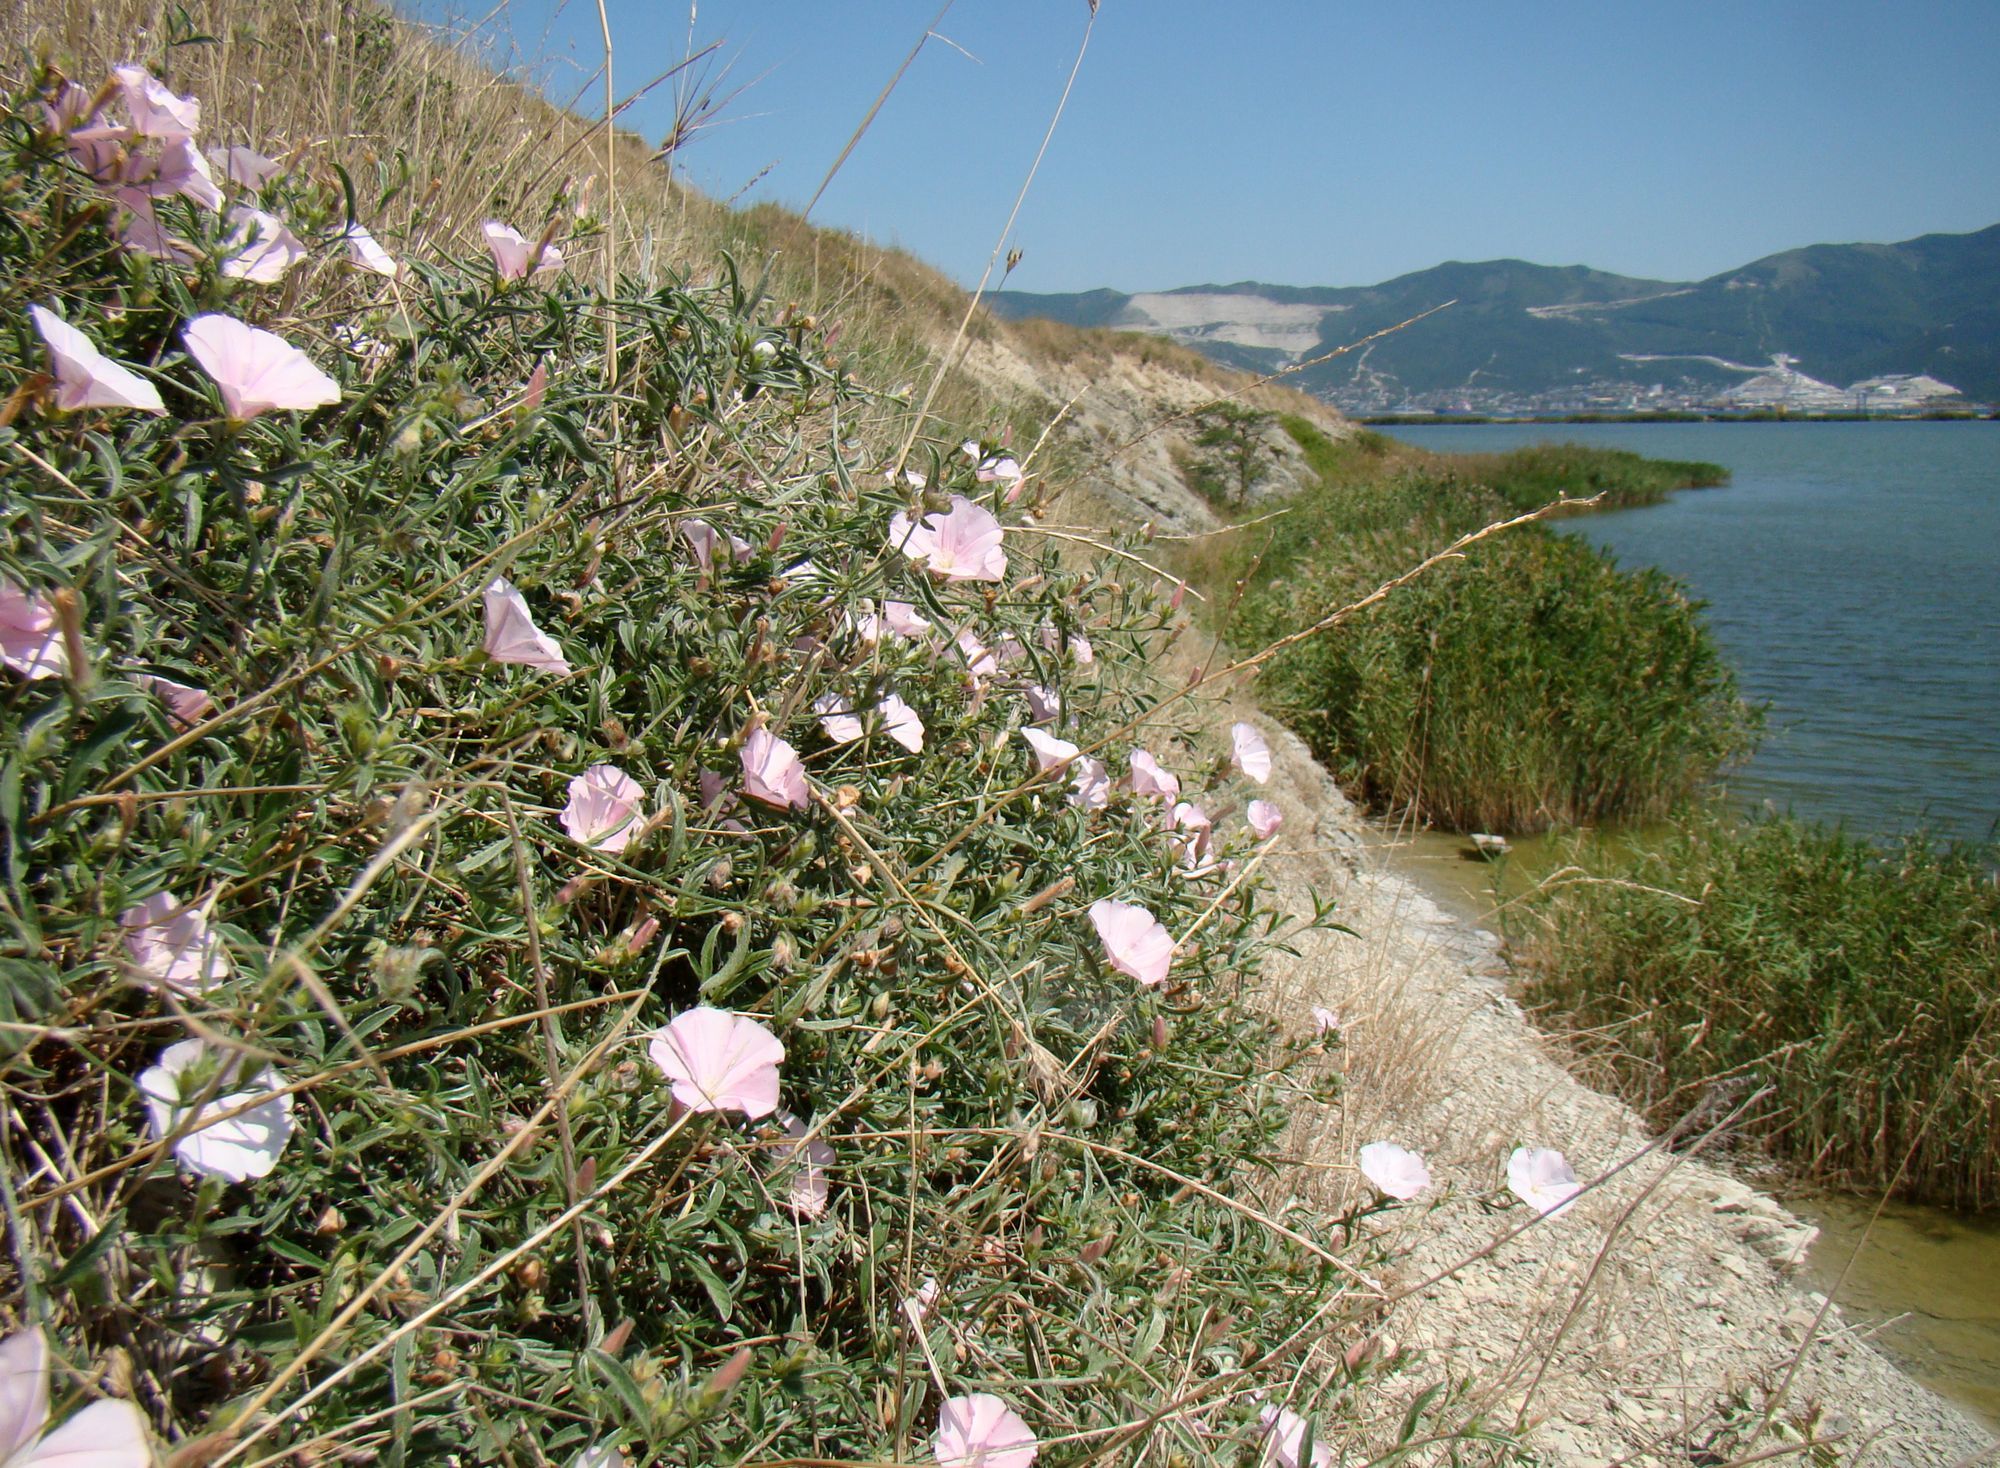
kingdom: Plantae
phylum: Tracheophyta
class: Magnoliopsida
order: Solanales
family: Convolvulaceae
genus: Convolvulus
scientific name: Convolvulus cantabrica
